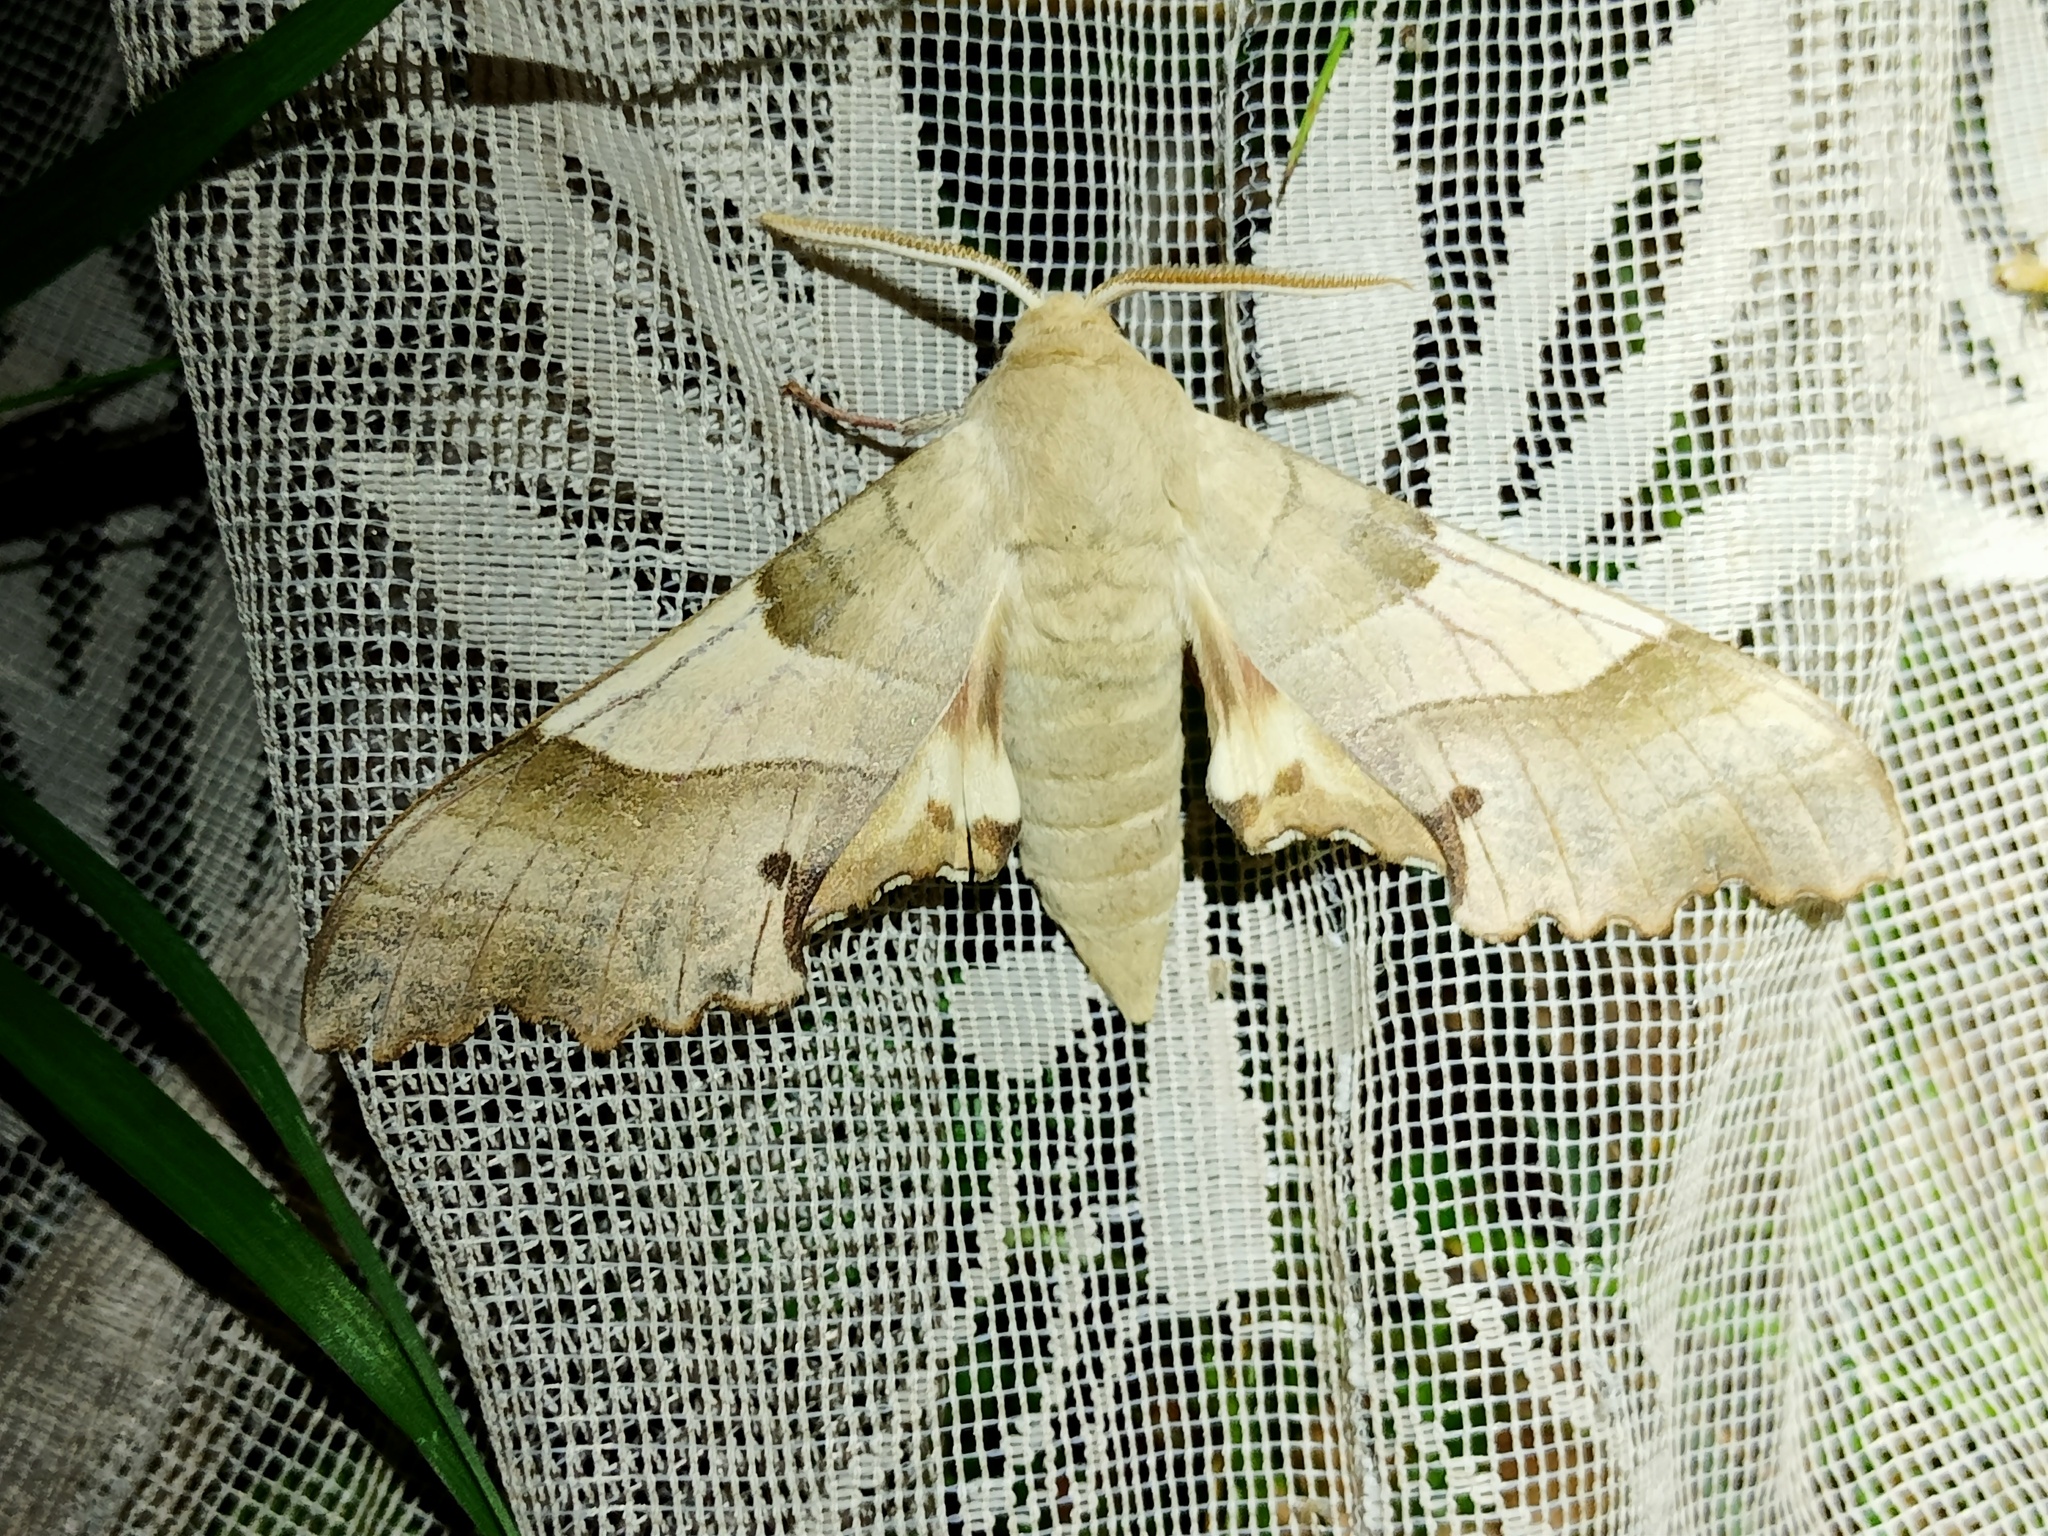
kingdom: Animalia
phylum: Arthropoda
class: Insecta
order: Lepidoptera
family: Sphingidae
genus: Marumba
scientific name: Marumba quercus
